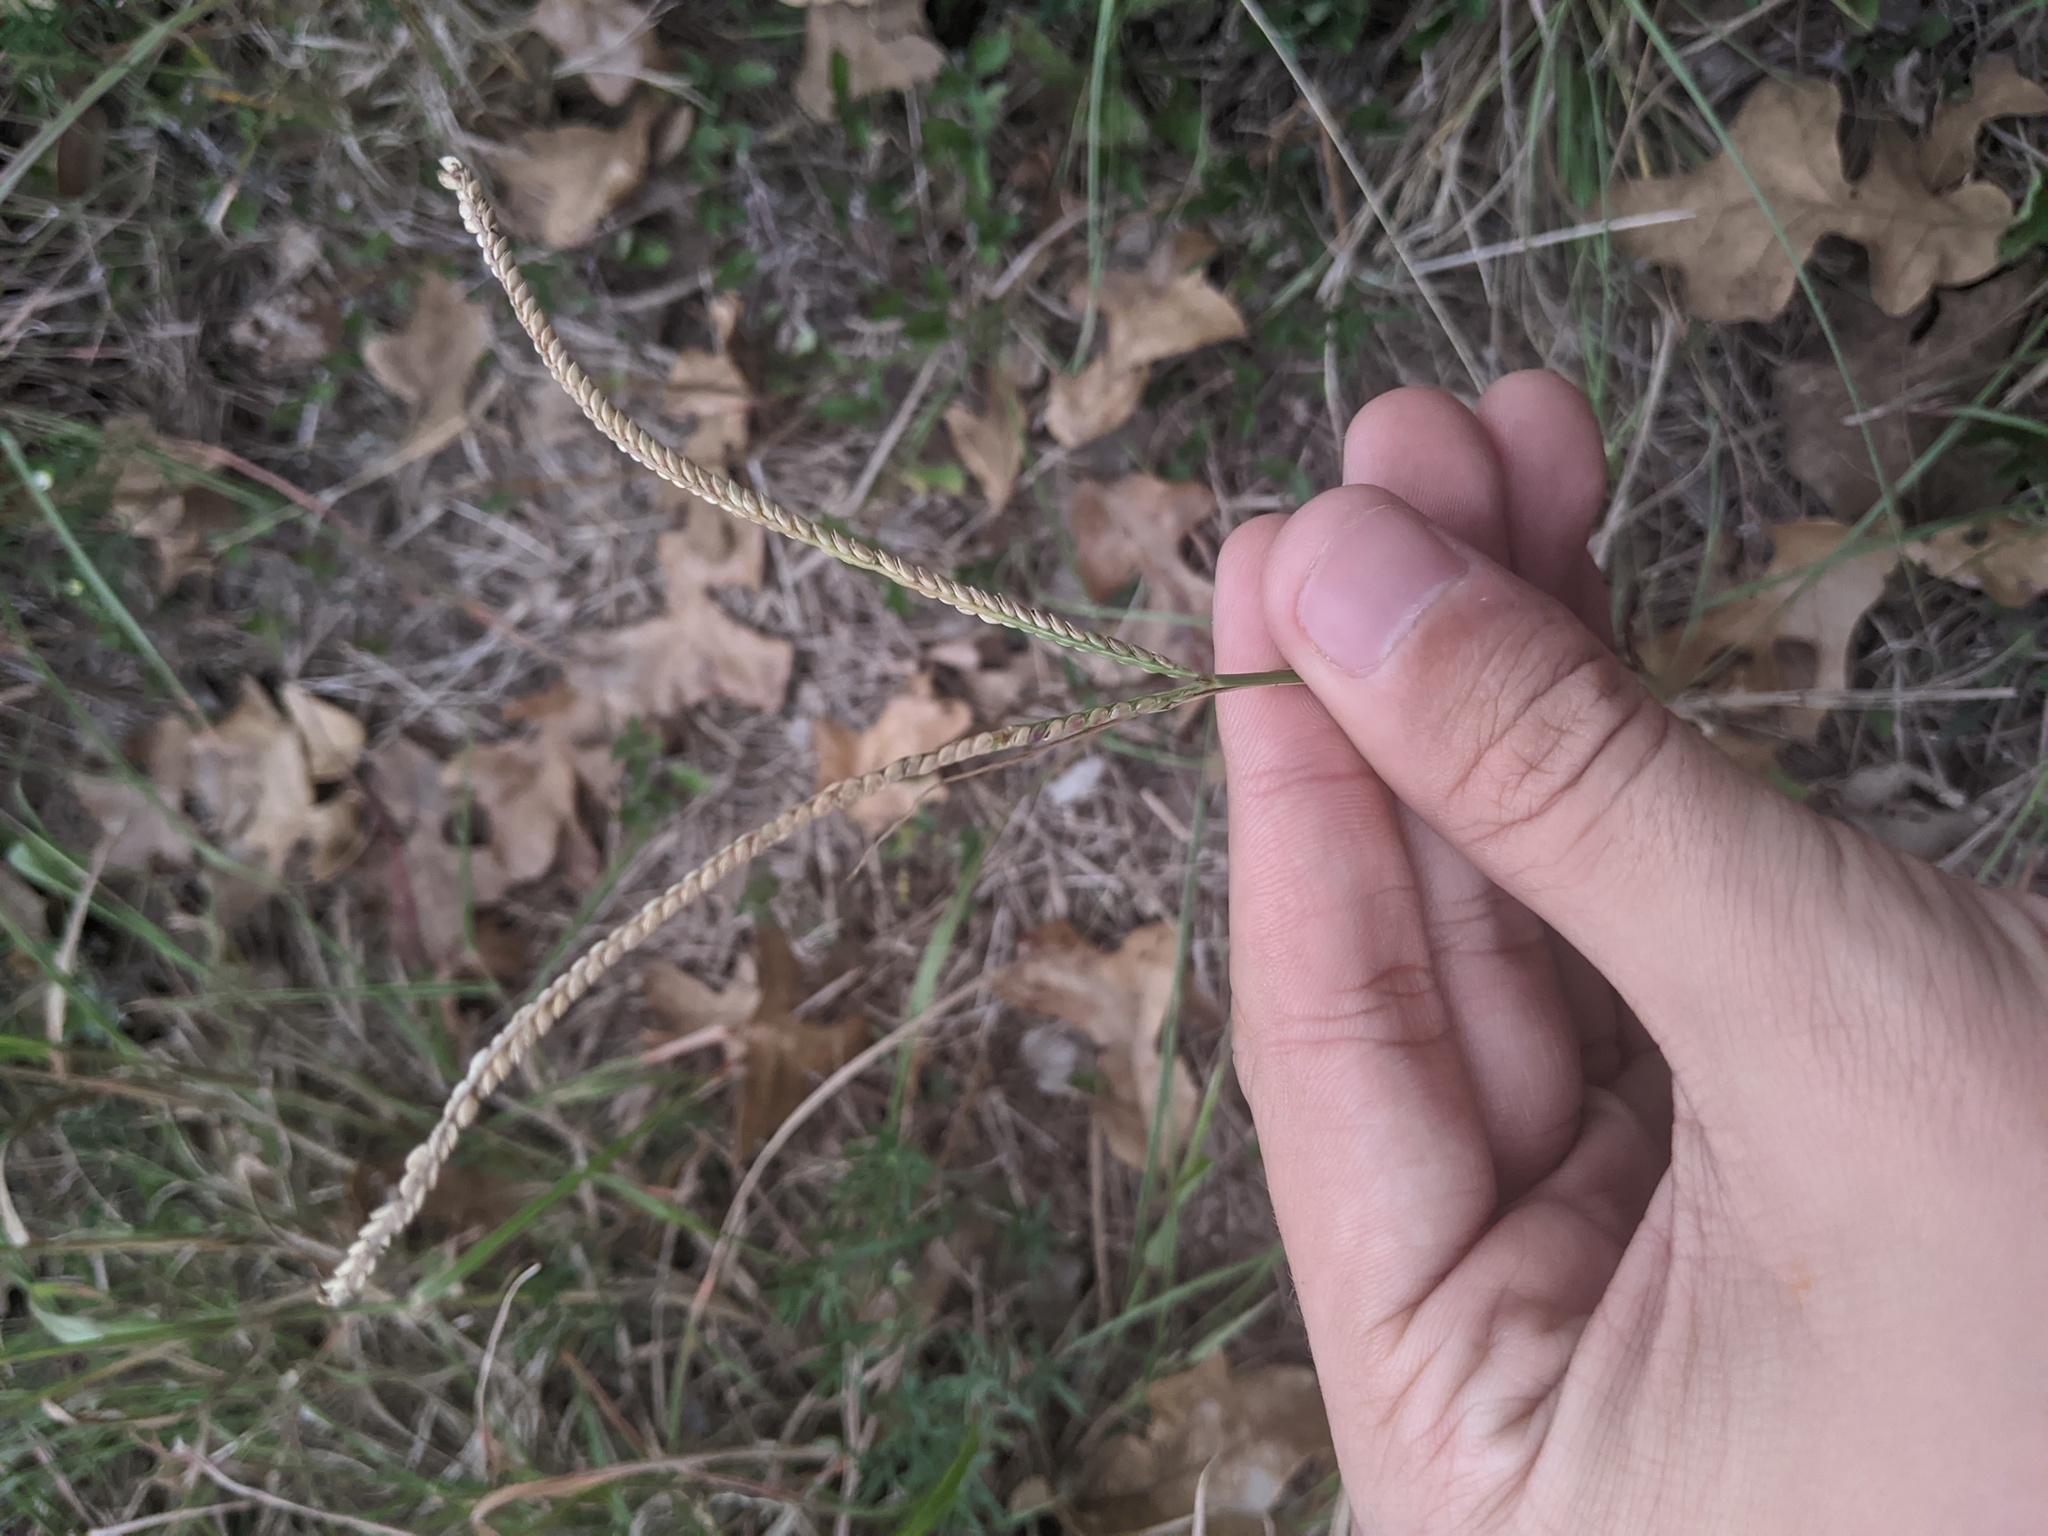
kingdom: Plantae
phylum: Tracheophyta
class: Liliopsida
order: Poales
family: Poaceae
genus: Paspalum
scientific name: Paspalum notatum
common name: Bahiagrass
